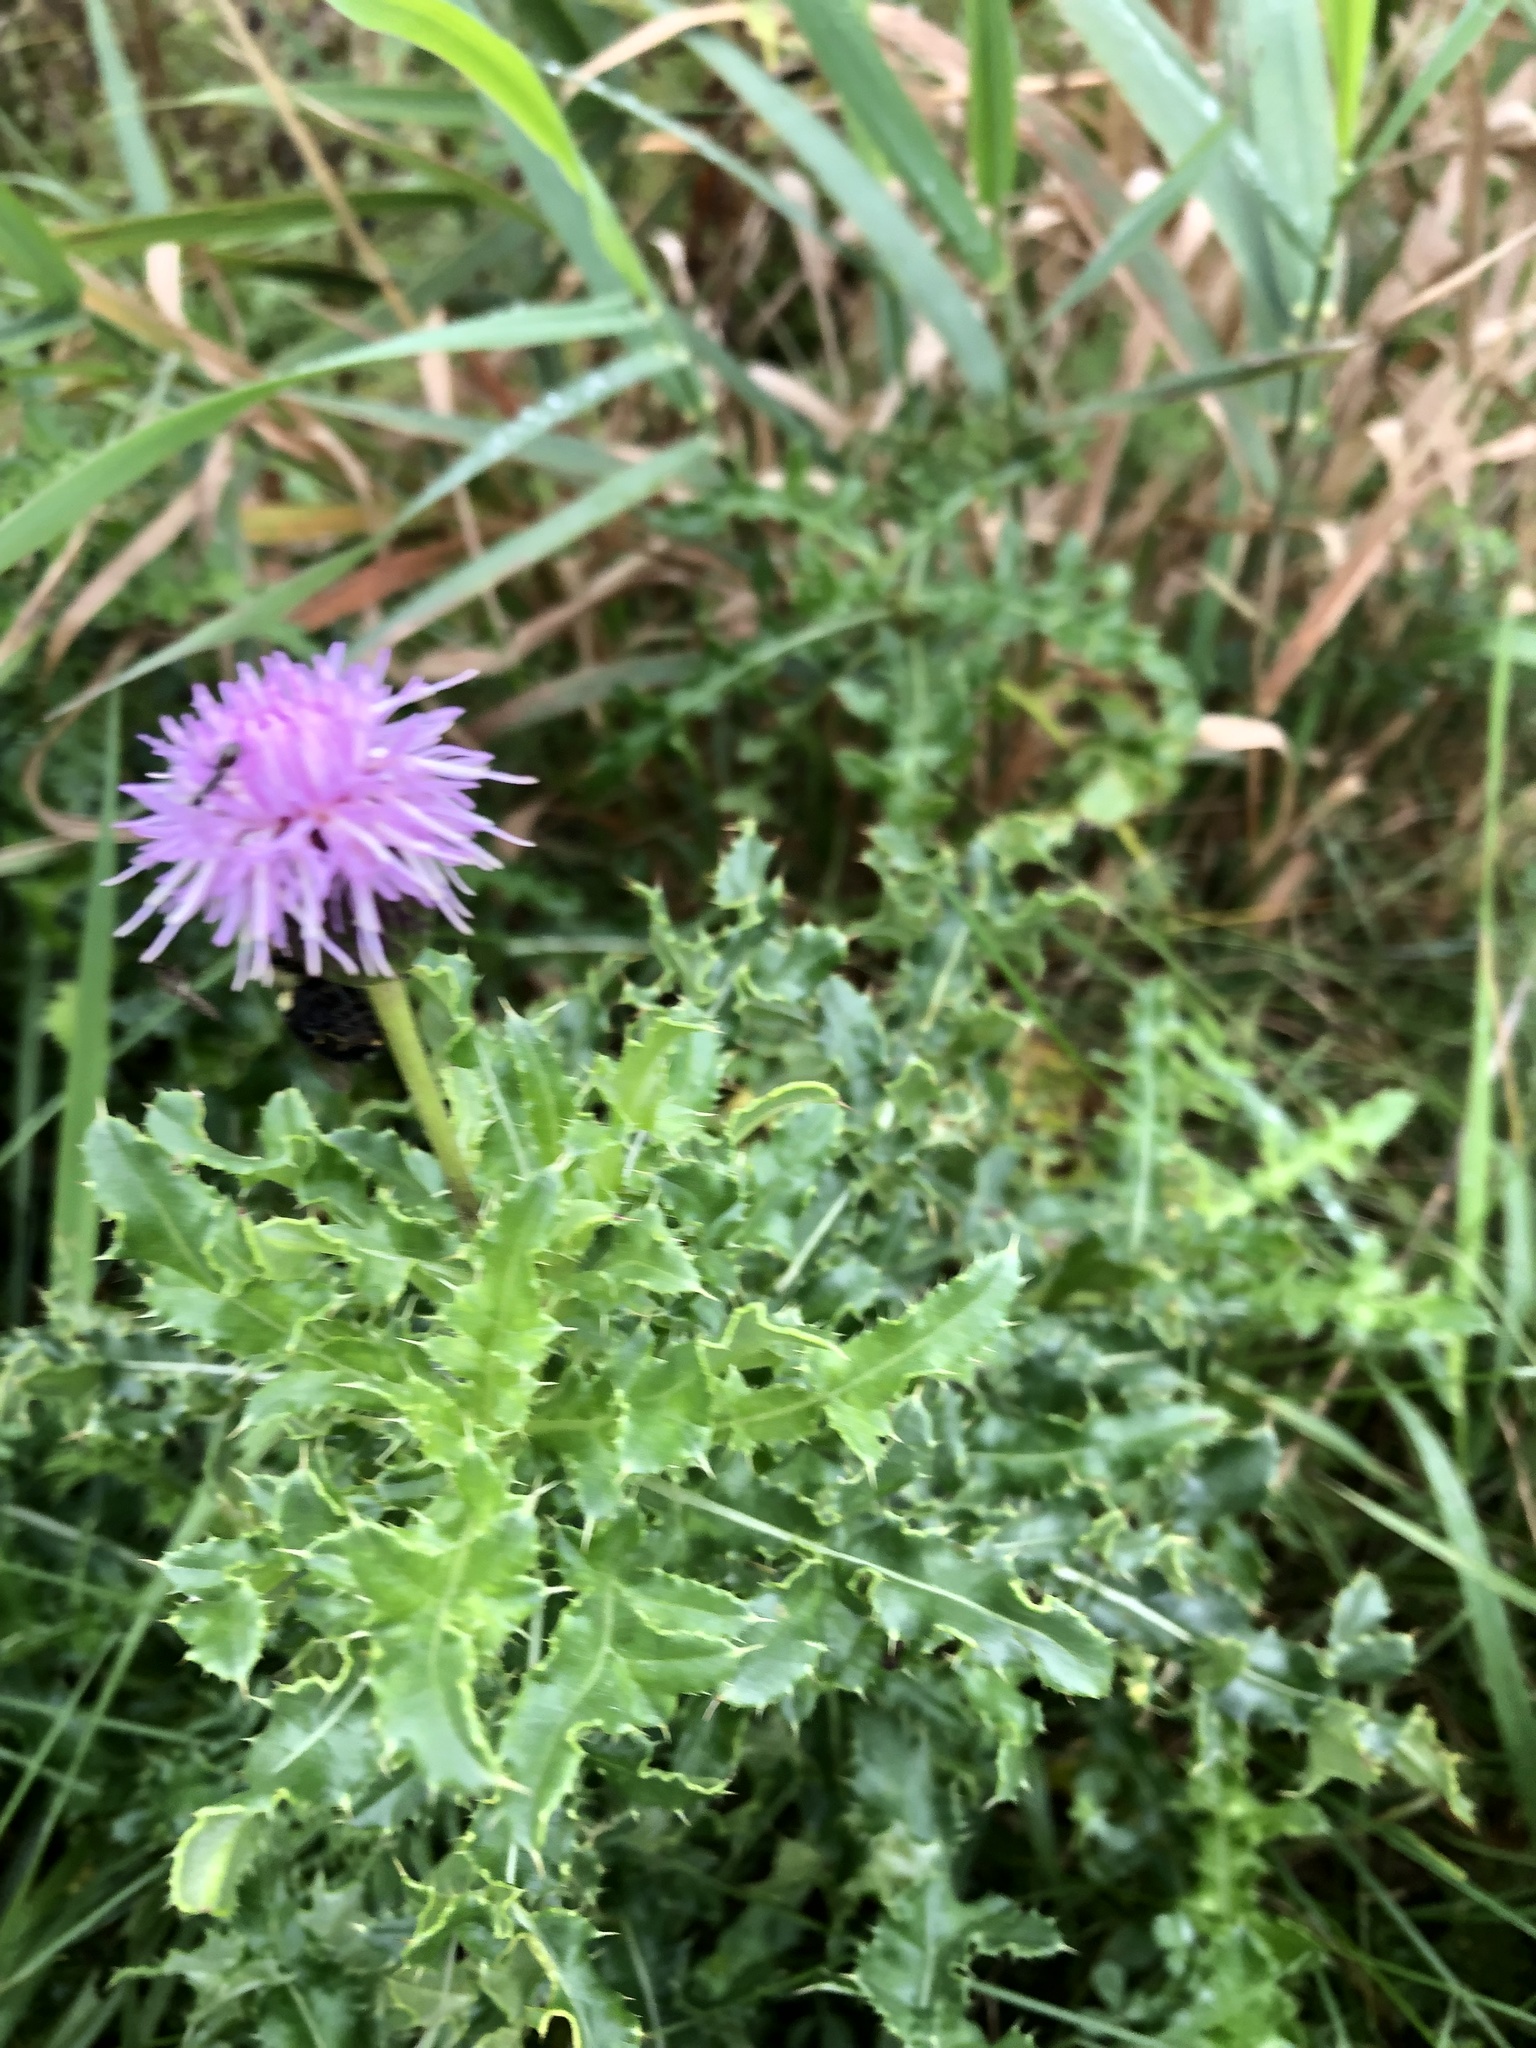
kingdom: Plantae
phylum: Tracheophyta
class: Magnoliopsida
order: Asterales
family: Asteraceae
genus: Cirsium
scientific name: Cirsium arvense
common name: Creeping thistle
